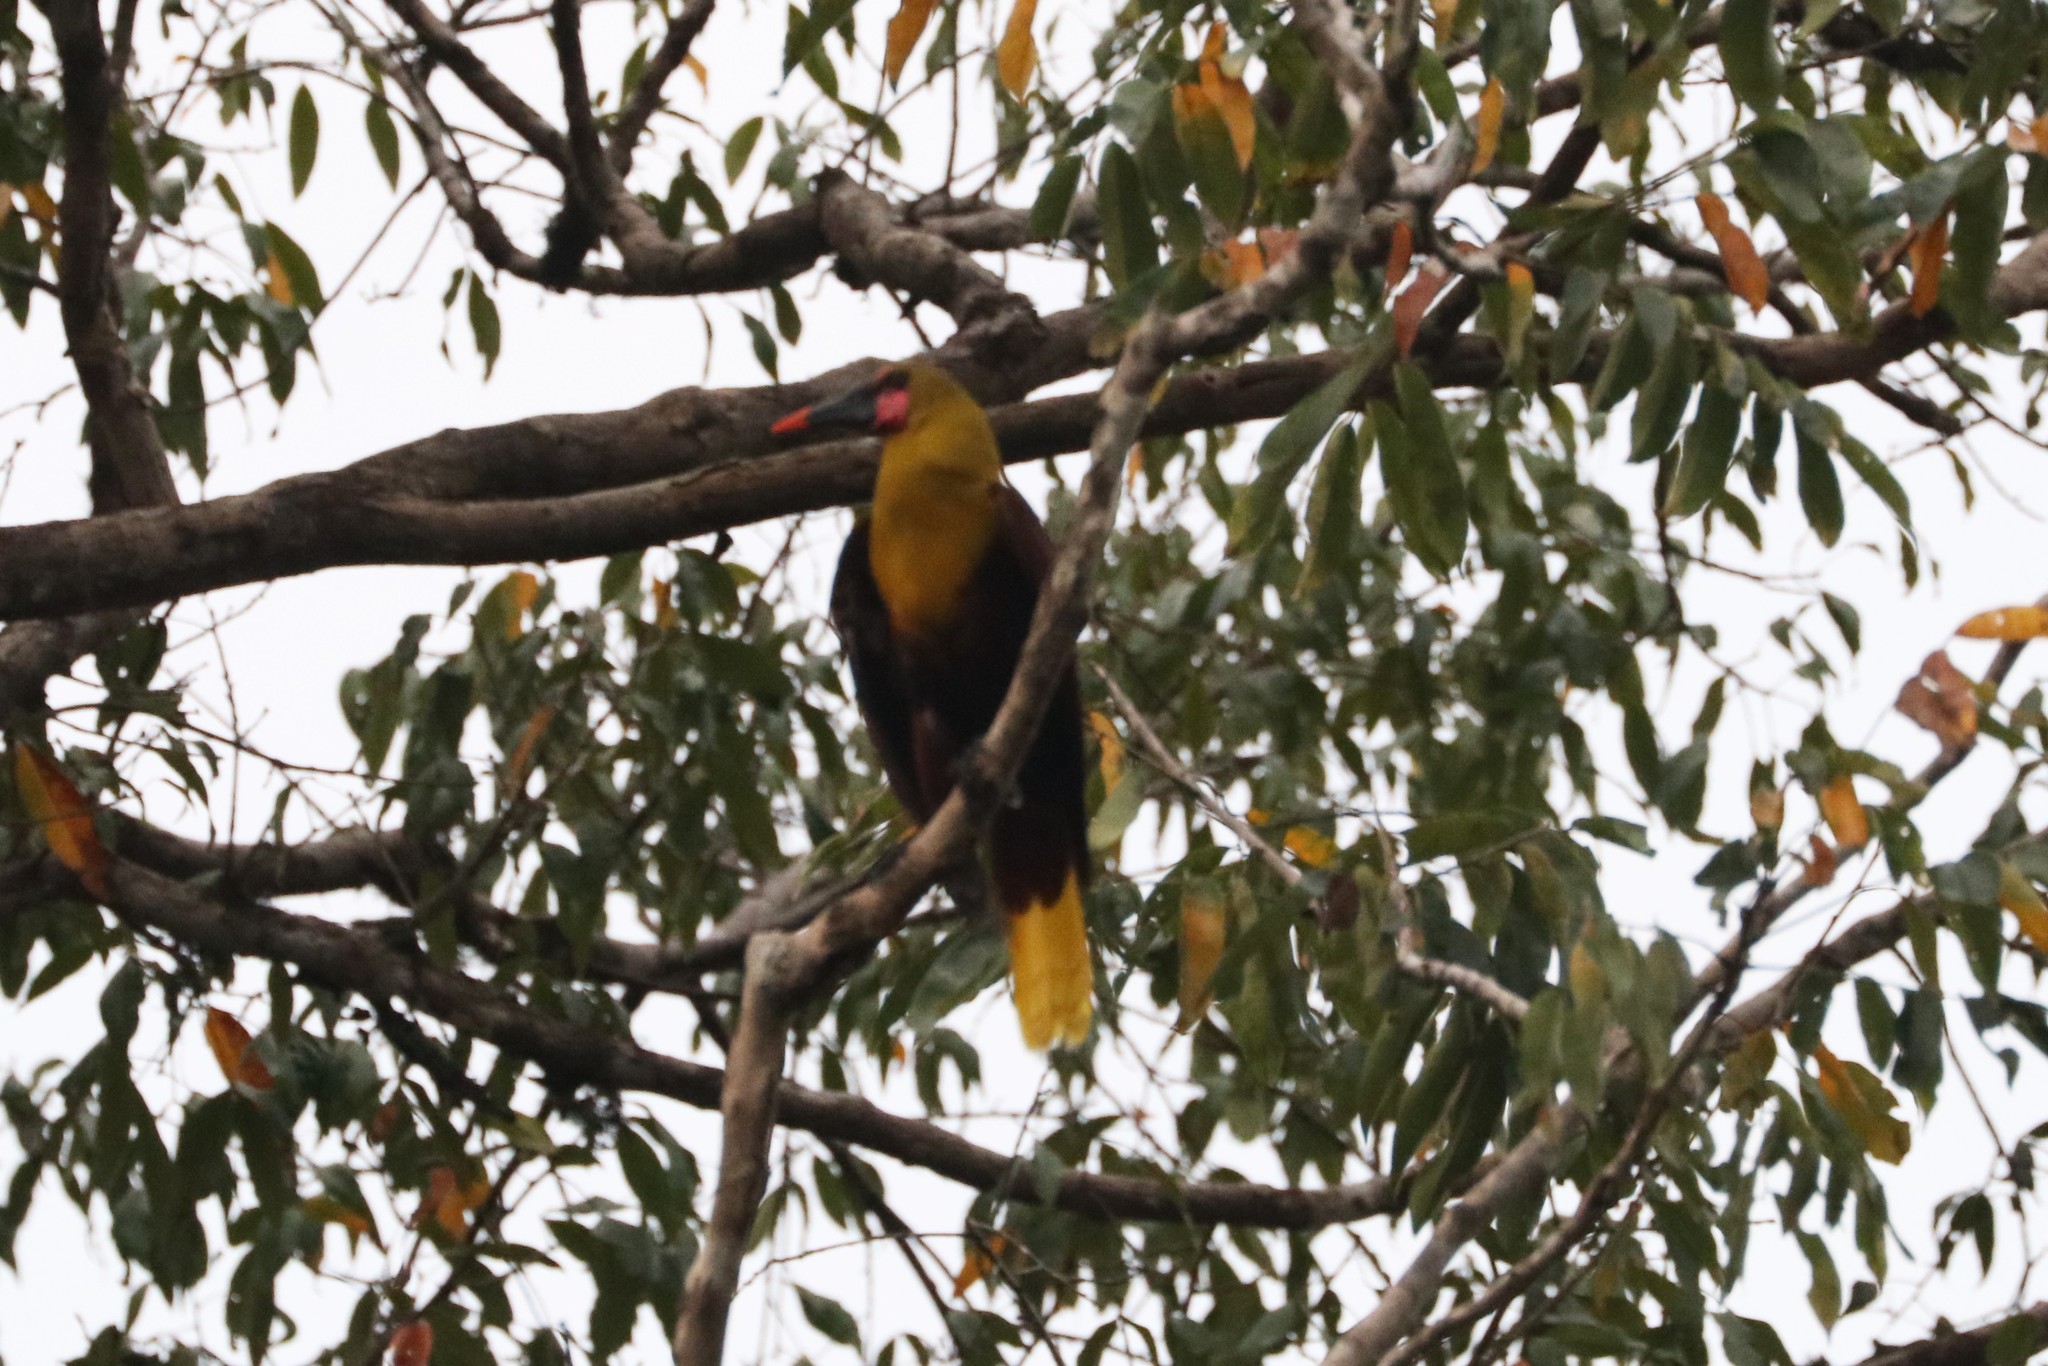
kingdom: Animalia
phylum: Chordata
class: Aves
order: Passeriformes
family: Icteridae
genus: Psarocolius
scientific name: Psarocolius bifasciatus
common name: Olive oropendola
